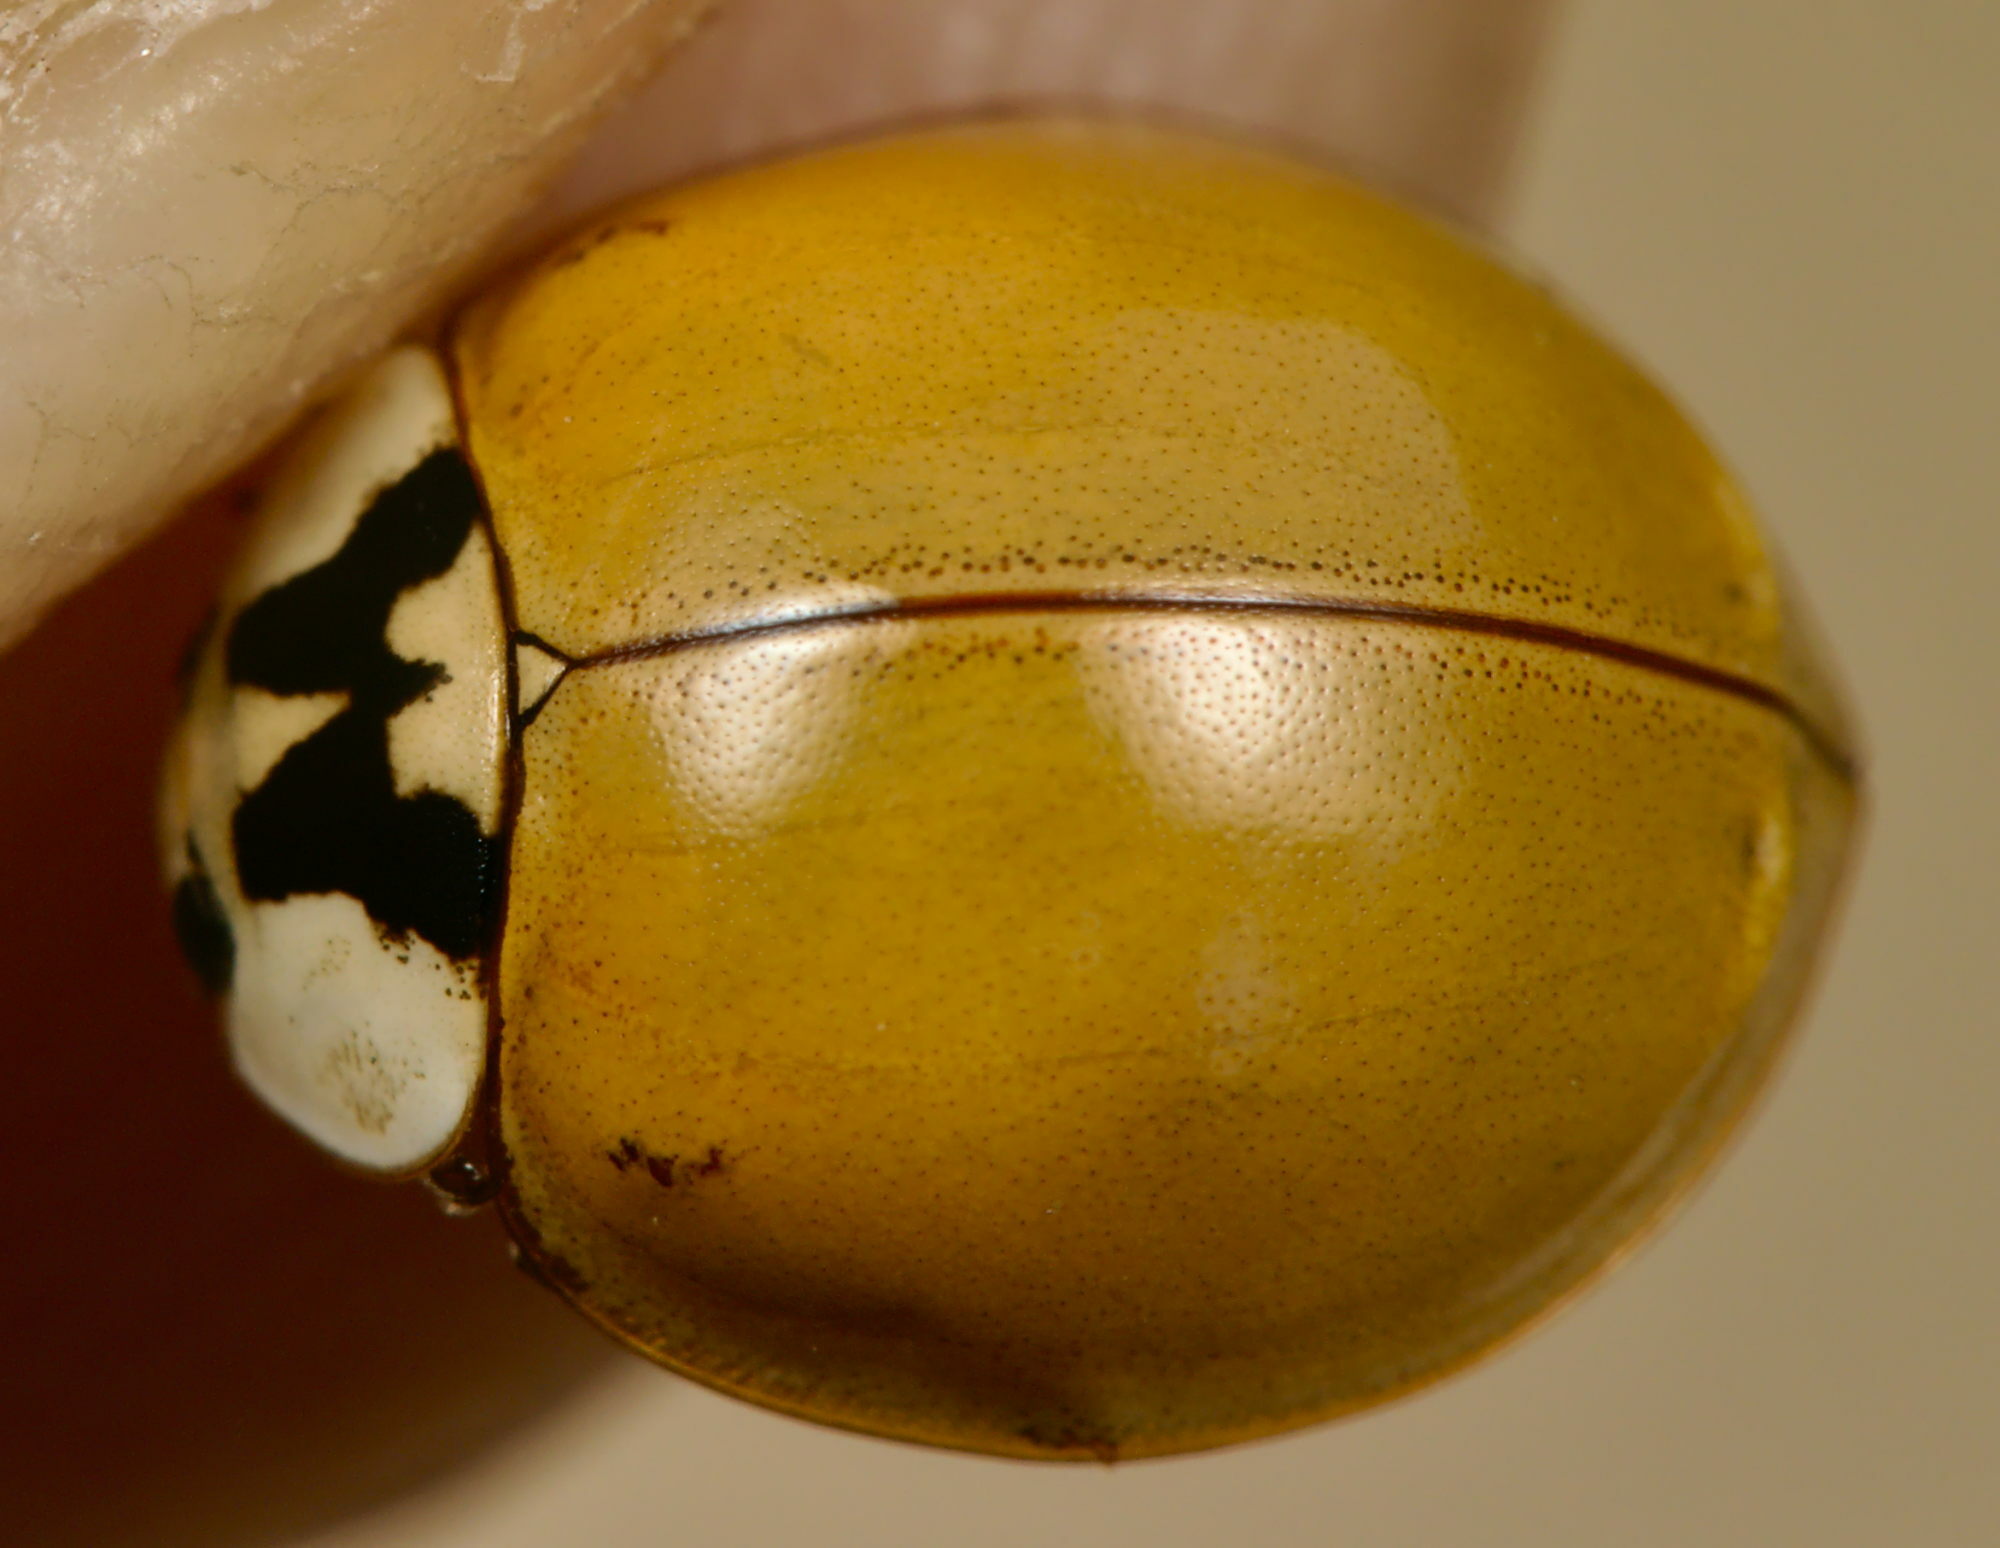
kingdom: Animalia
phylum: Arthropoda
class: Insecta
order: Coleoptera
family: Coccinellidae
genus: Harmonia
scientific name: Harmonia axyridis
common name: Harlequin ladybird
